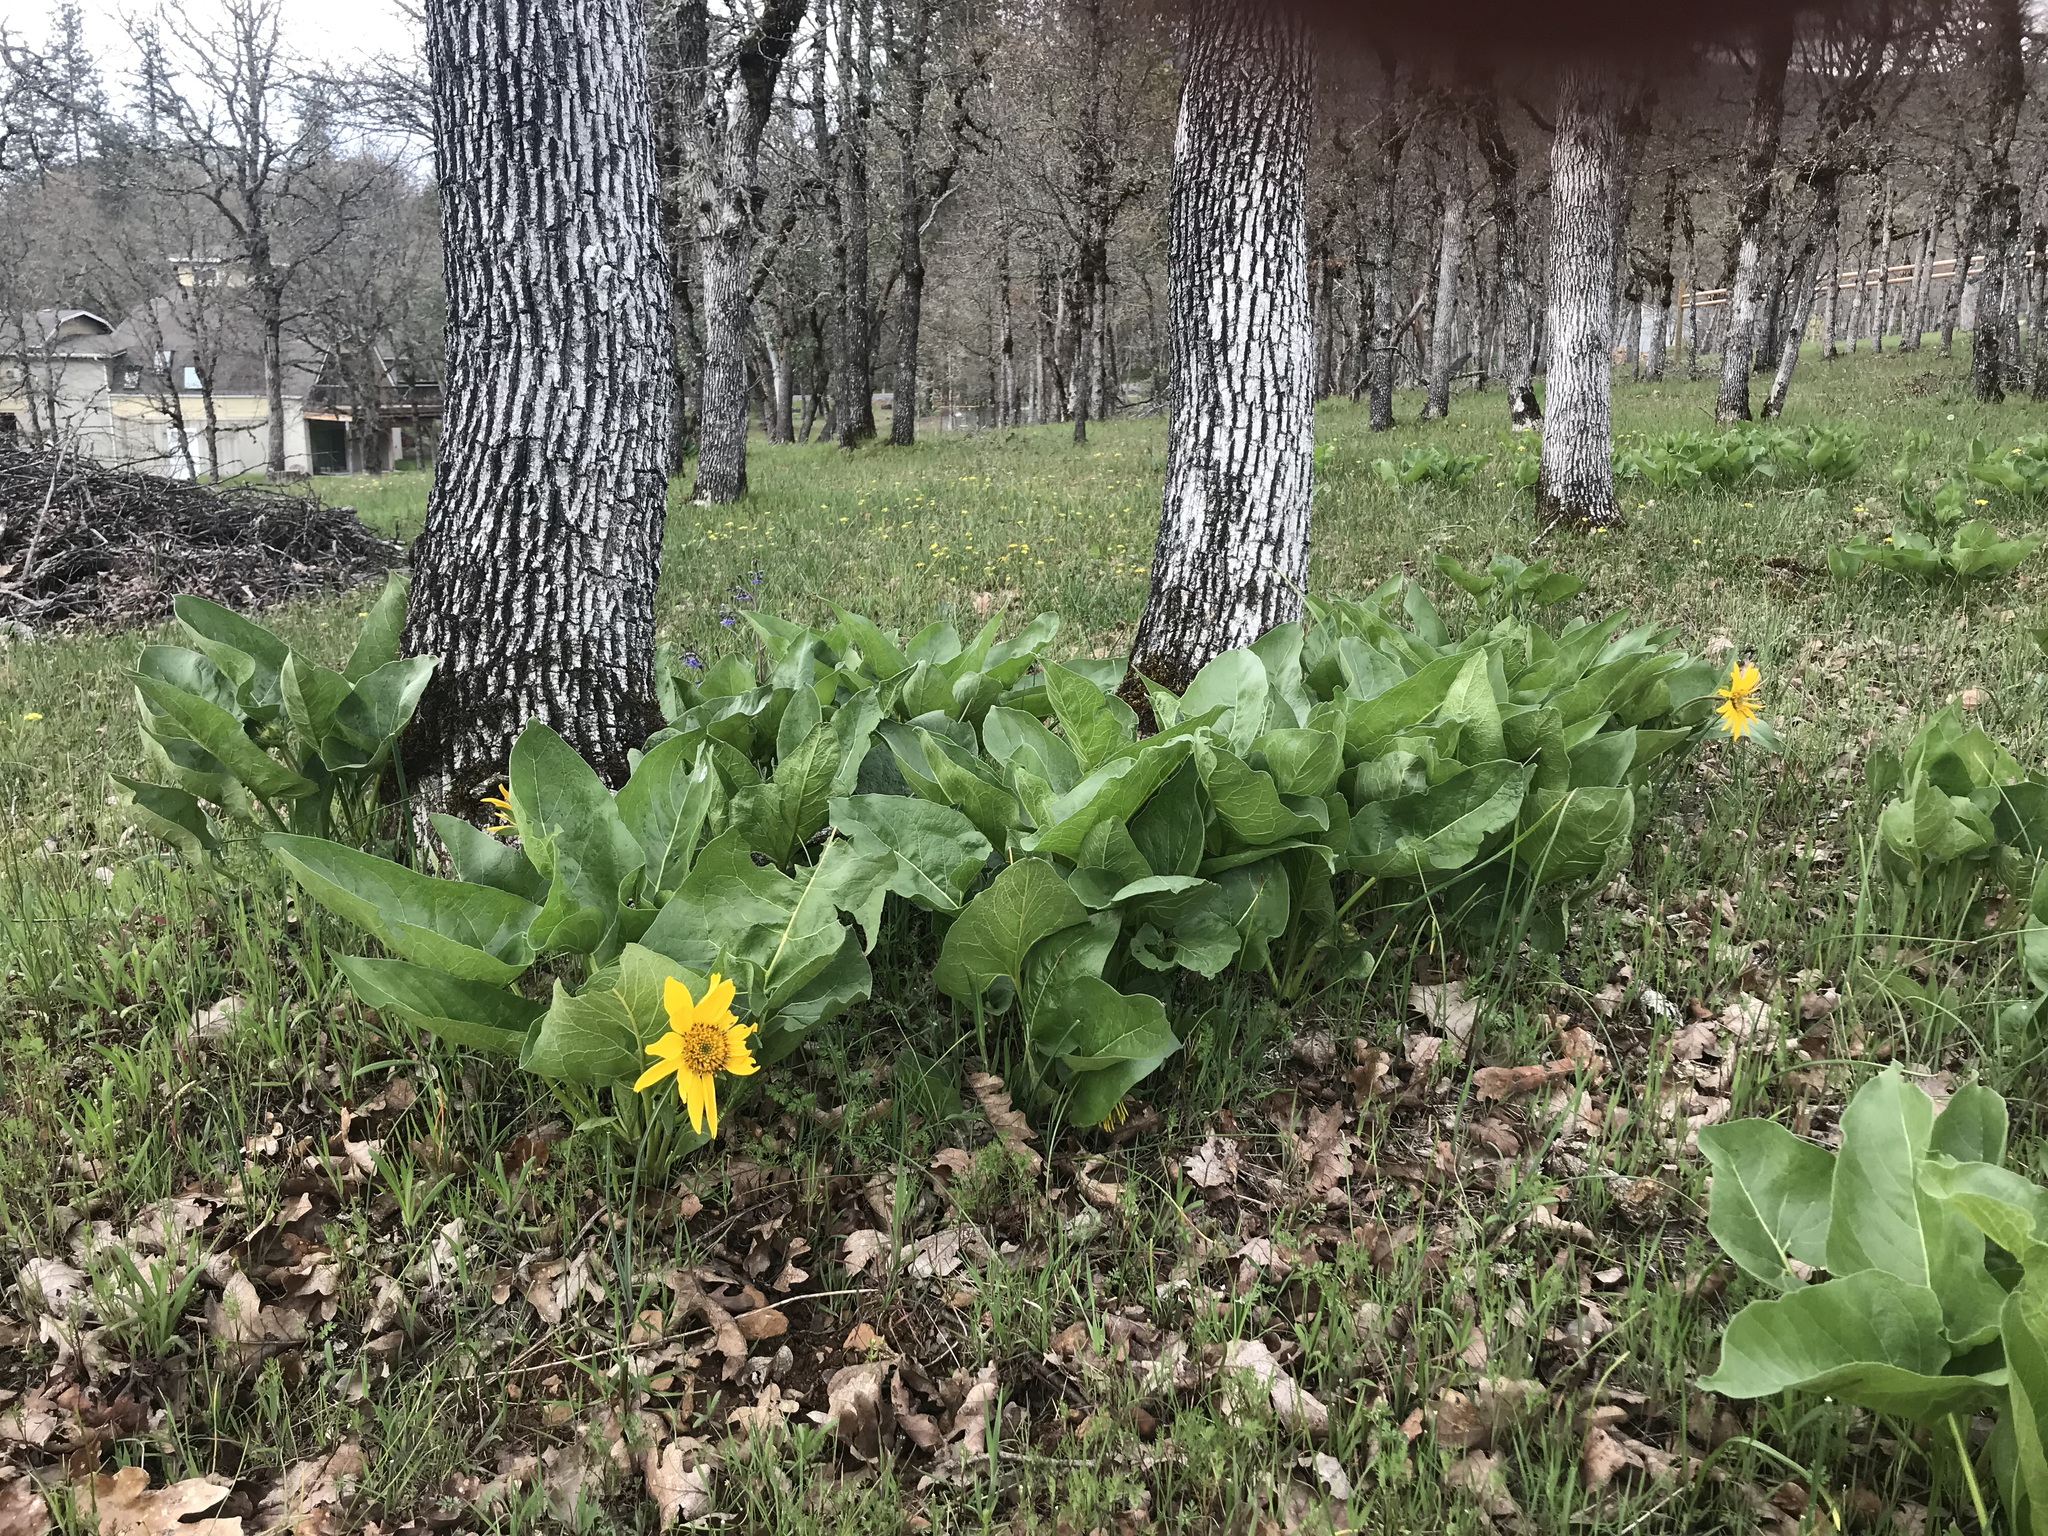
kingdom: Plantae
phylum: Tracheophyta
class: Magnoliopsida
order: Asterales
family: Asteraceae
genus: Balsamorhiza
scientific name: Balsamorhiza deltoidea
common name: Deltoid balsamroot
